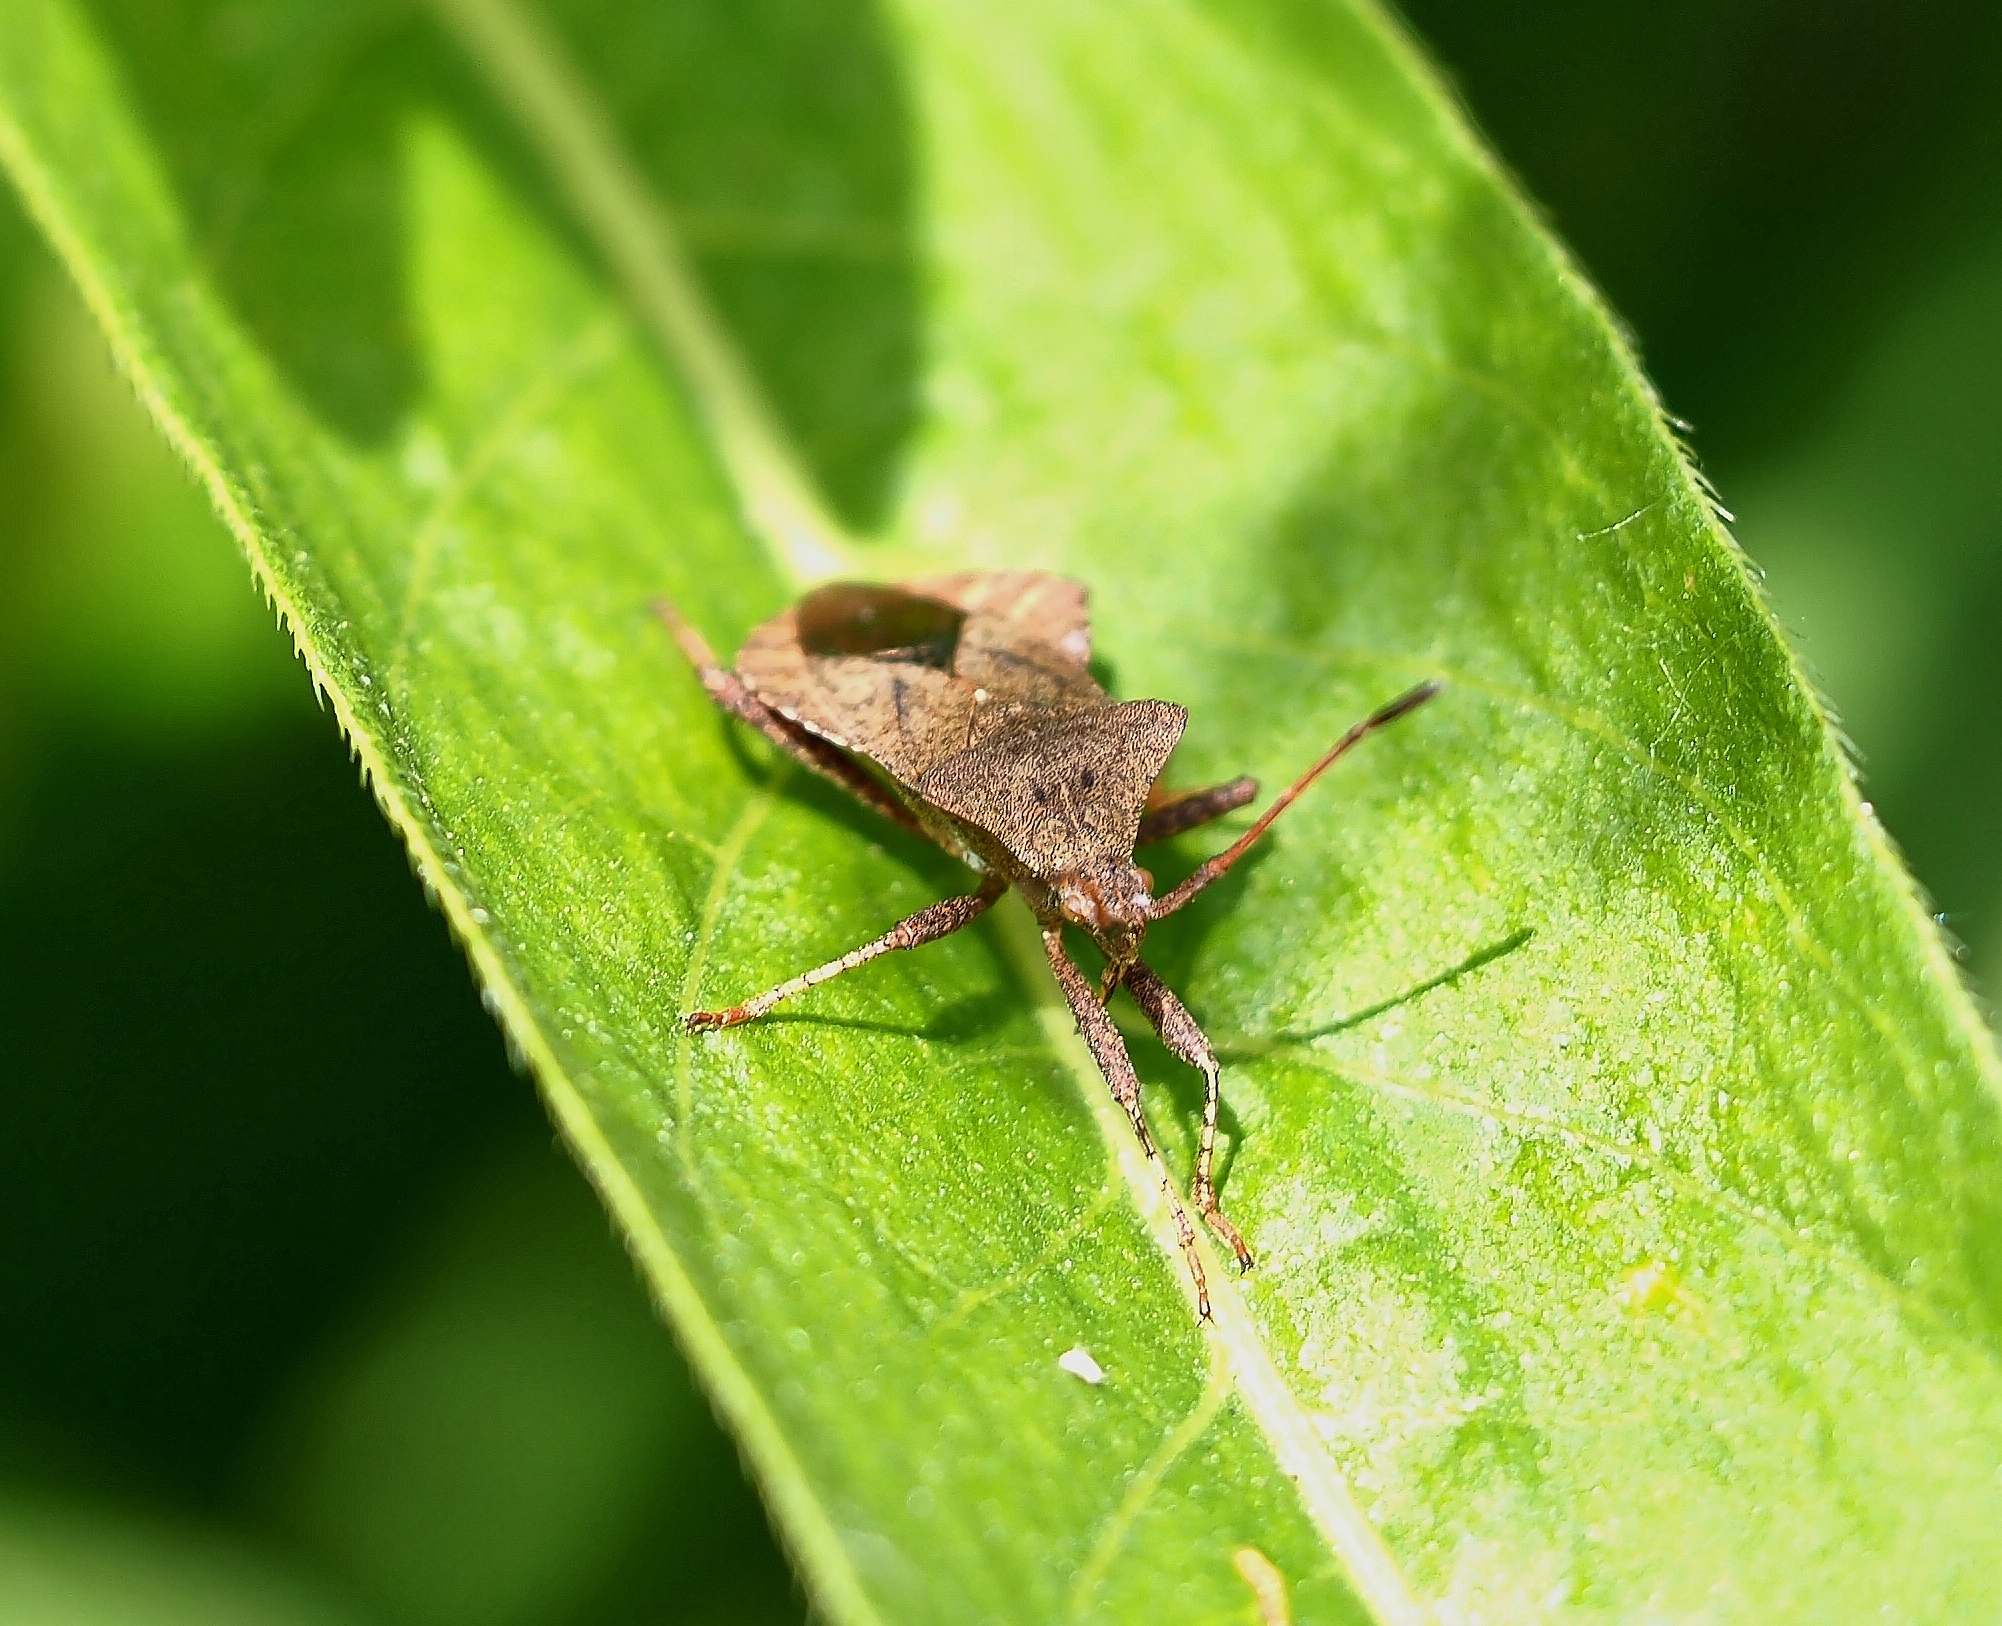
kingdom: Animalia
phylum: Arthropoda
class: Insecta
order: Hemiptera
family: Coreidae
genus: Coreus
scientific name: Coreus marginatus
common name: Dock bug
